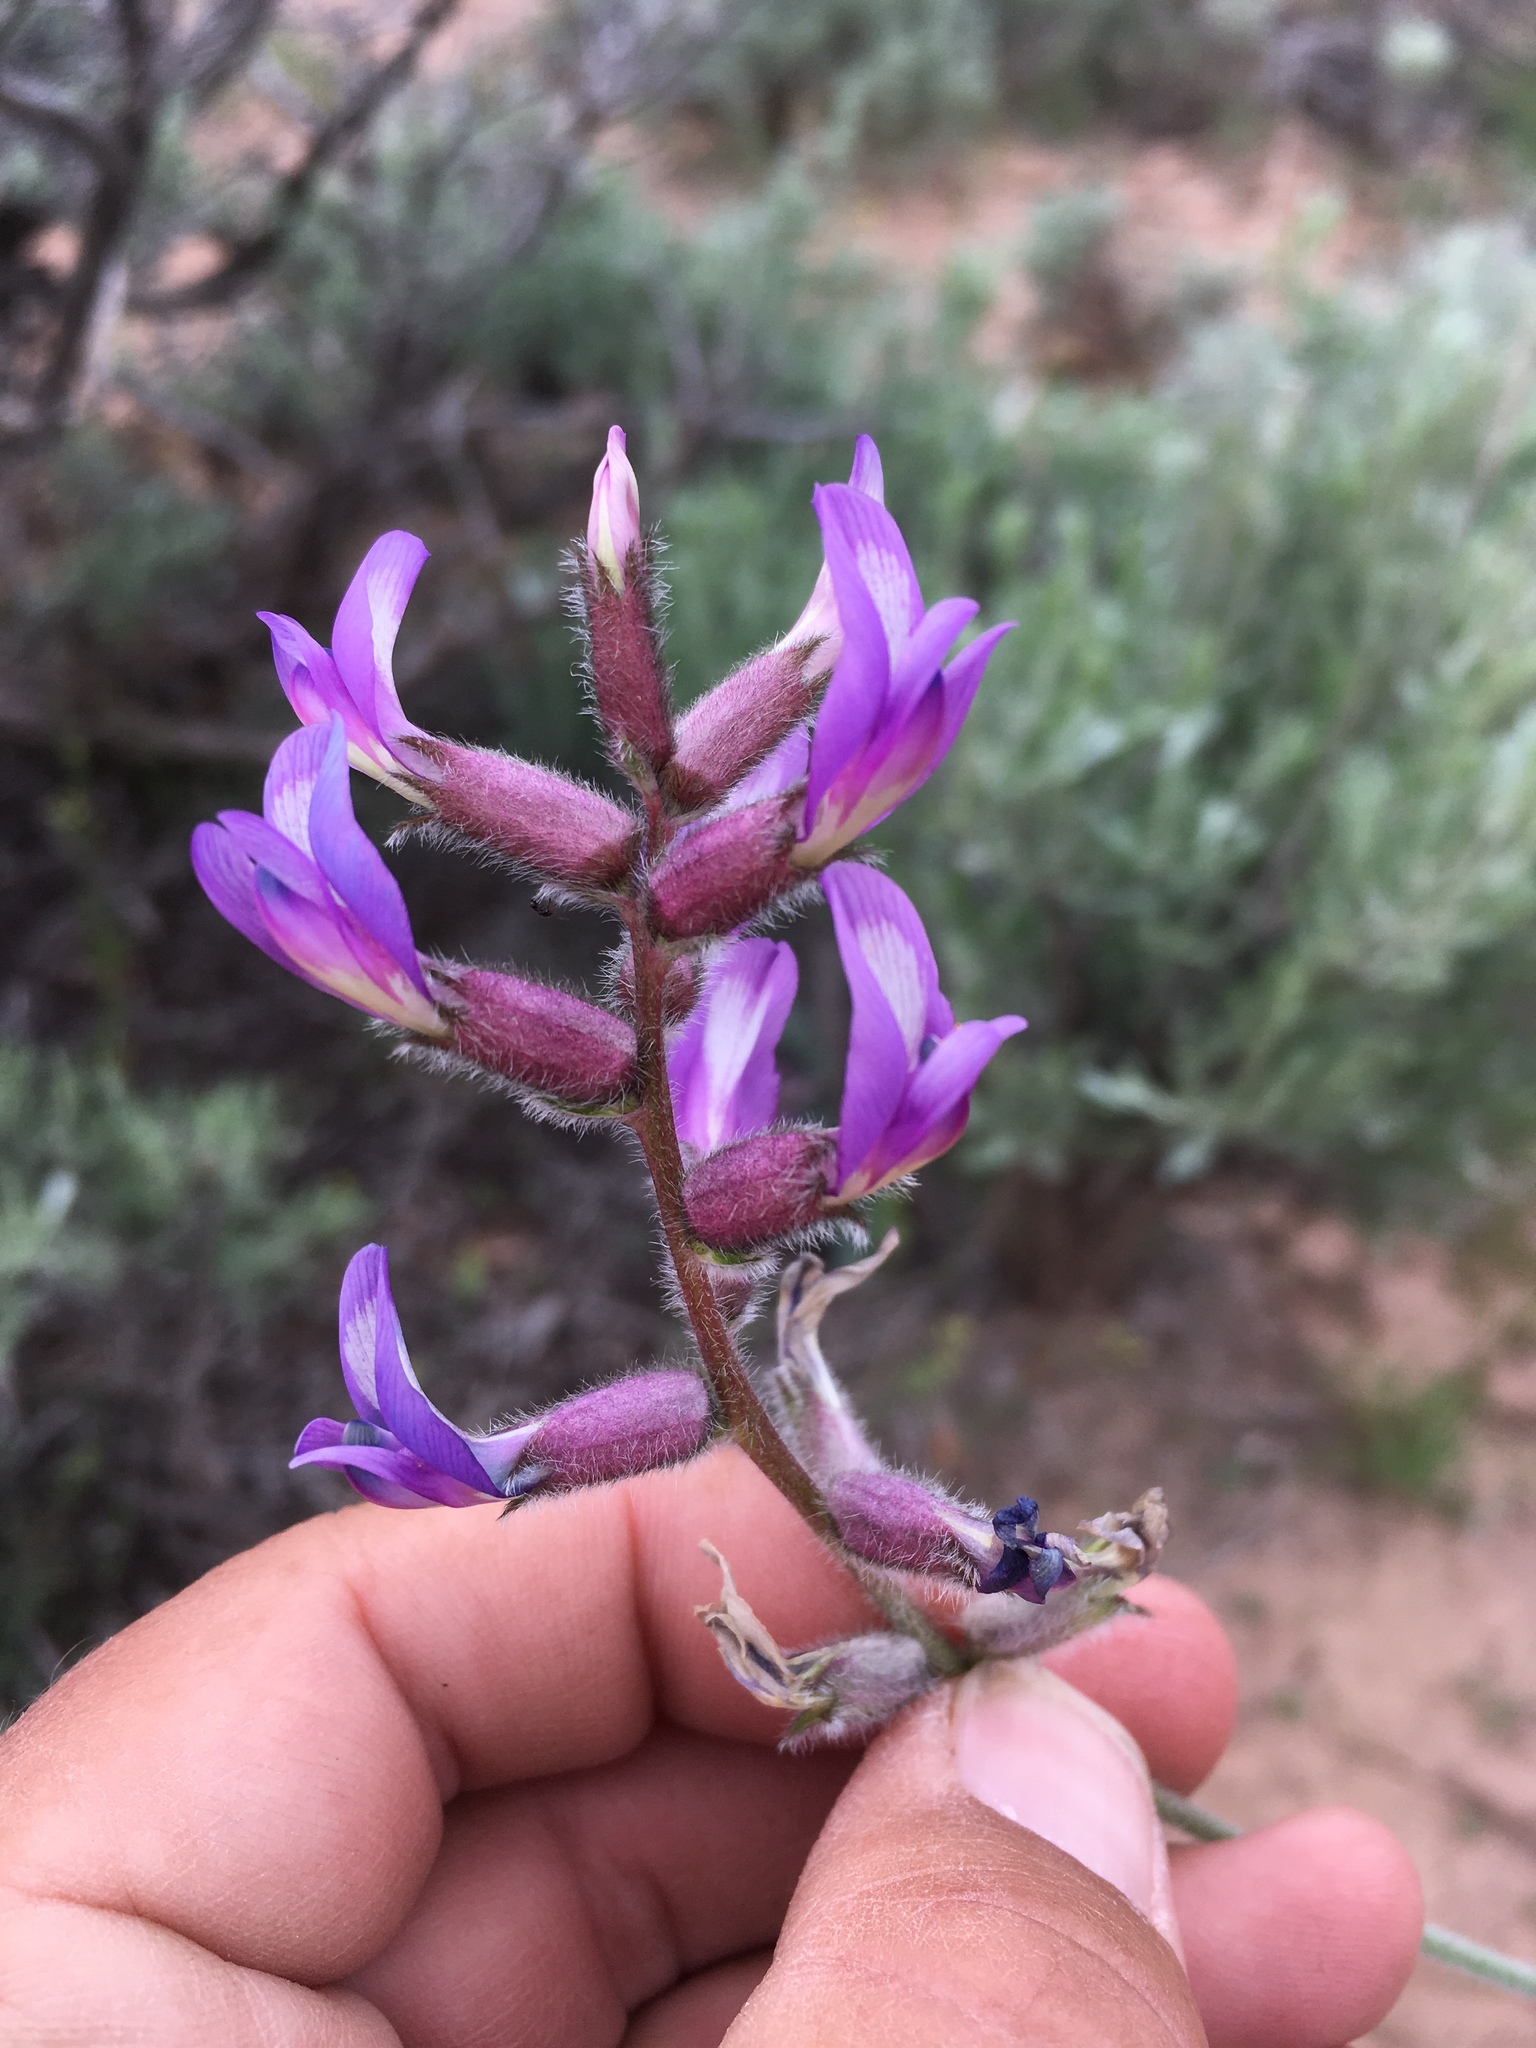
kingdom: Plantae
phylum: Tracheophyta
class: Magnoliopsida
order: Fabales
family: Fabaceae
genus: Astragalus
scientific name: Astragalus mollissimus
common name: Woolly locoweed
